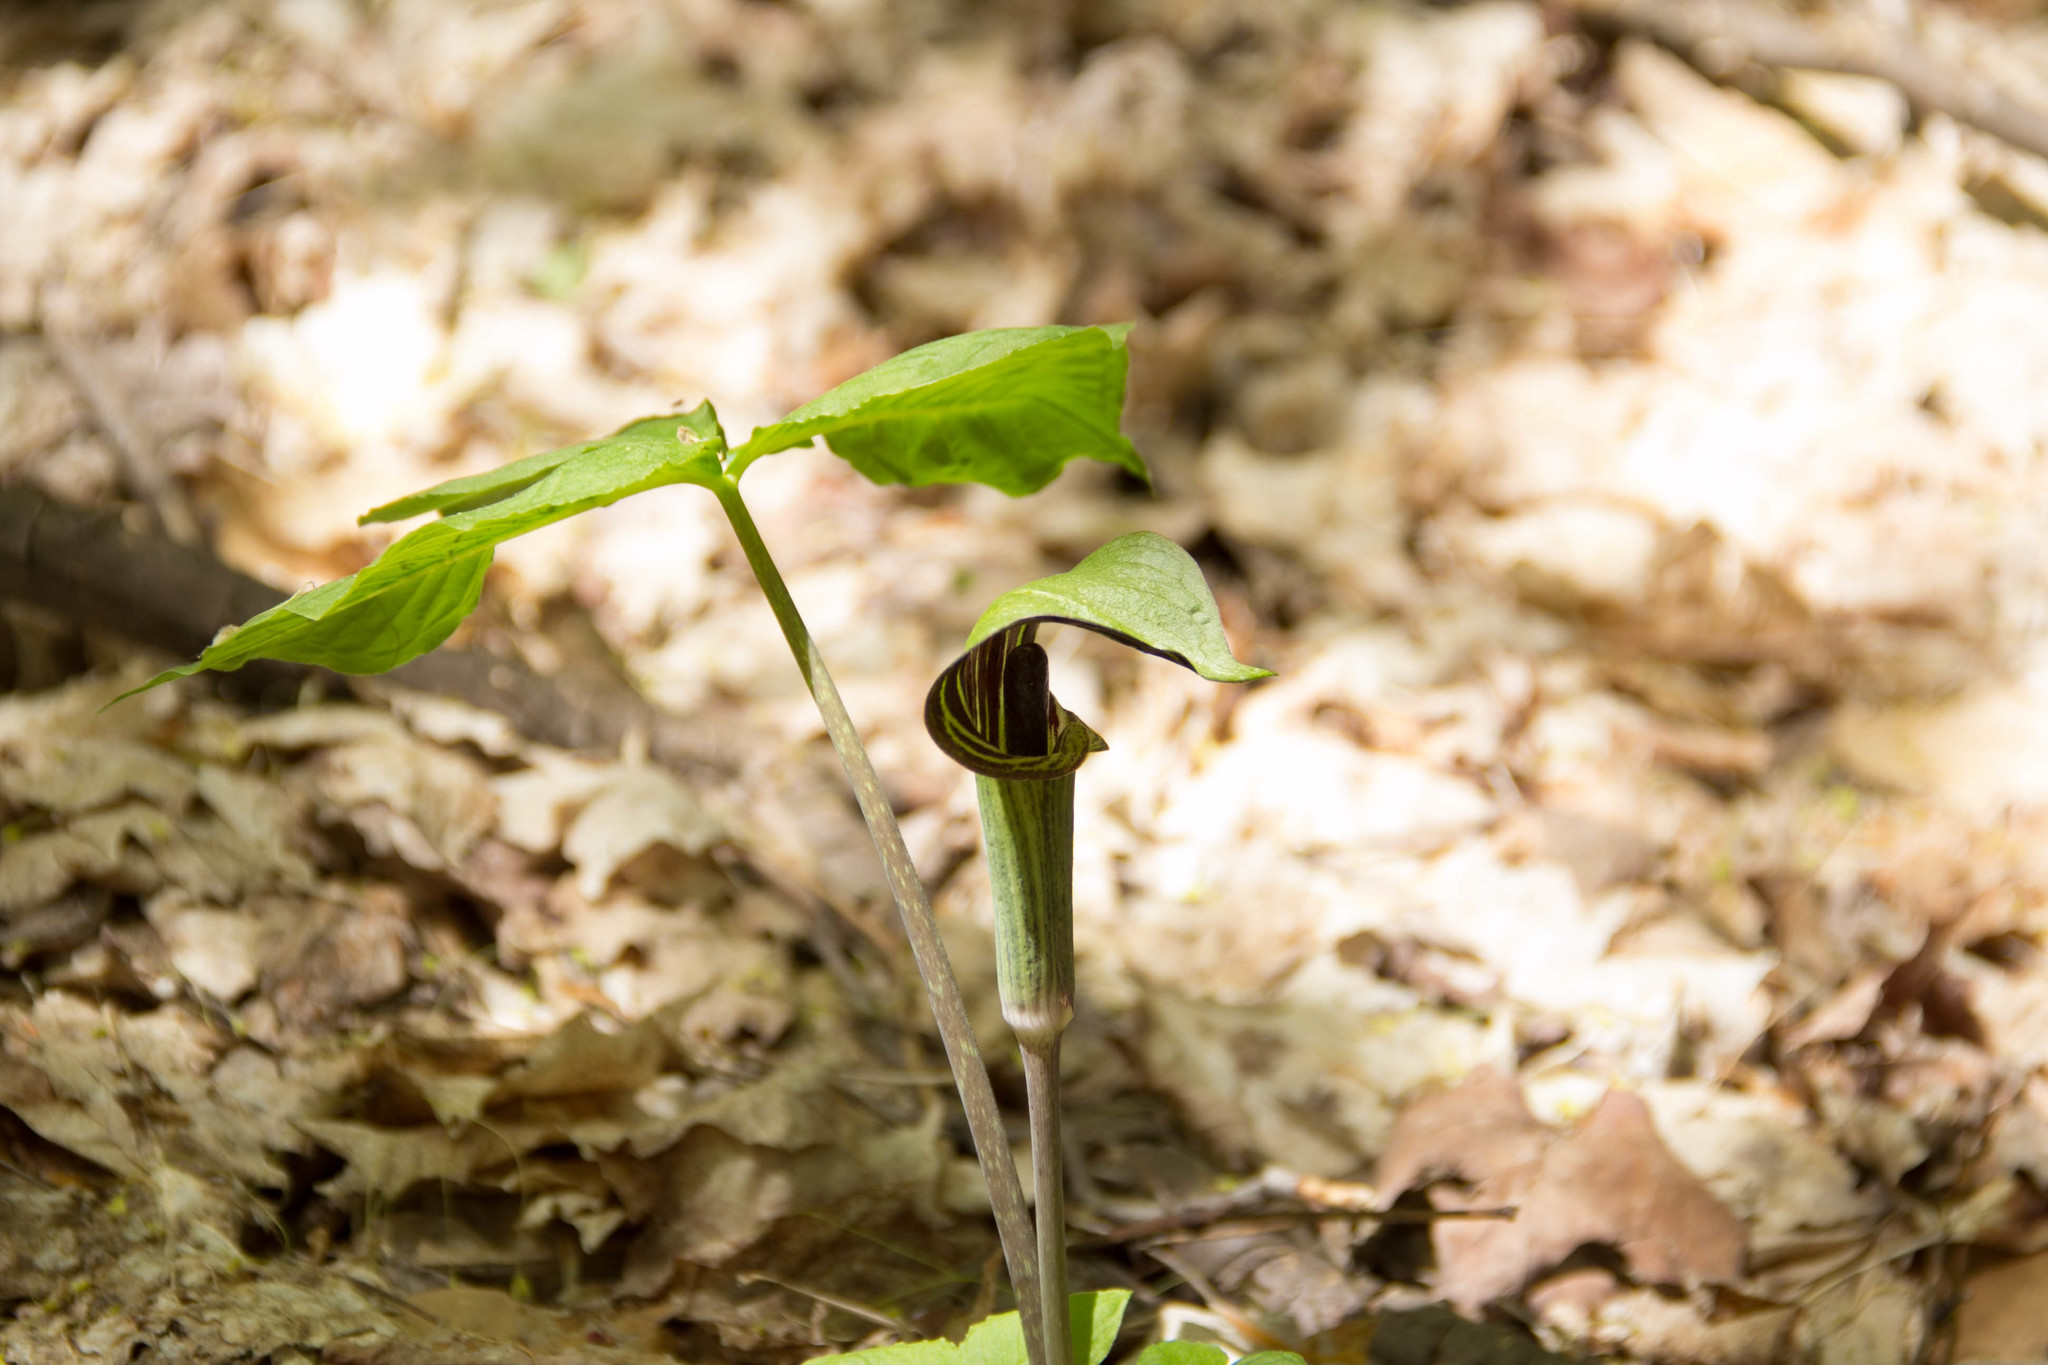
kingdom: Plantae
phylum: Tracheophyta
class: Liliopsida
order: Alismatales
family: Araceae
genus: Arisaema
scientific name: Arisaema triphyllum
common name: Jack-in-the-pulpit
